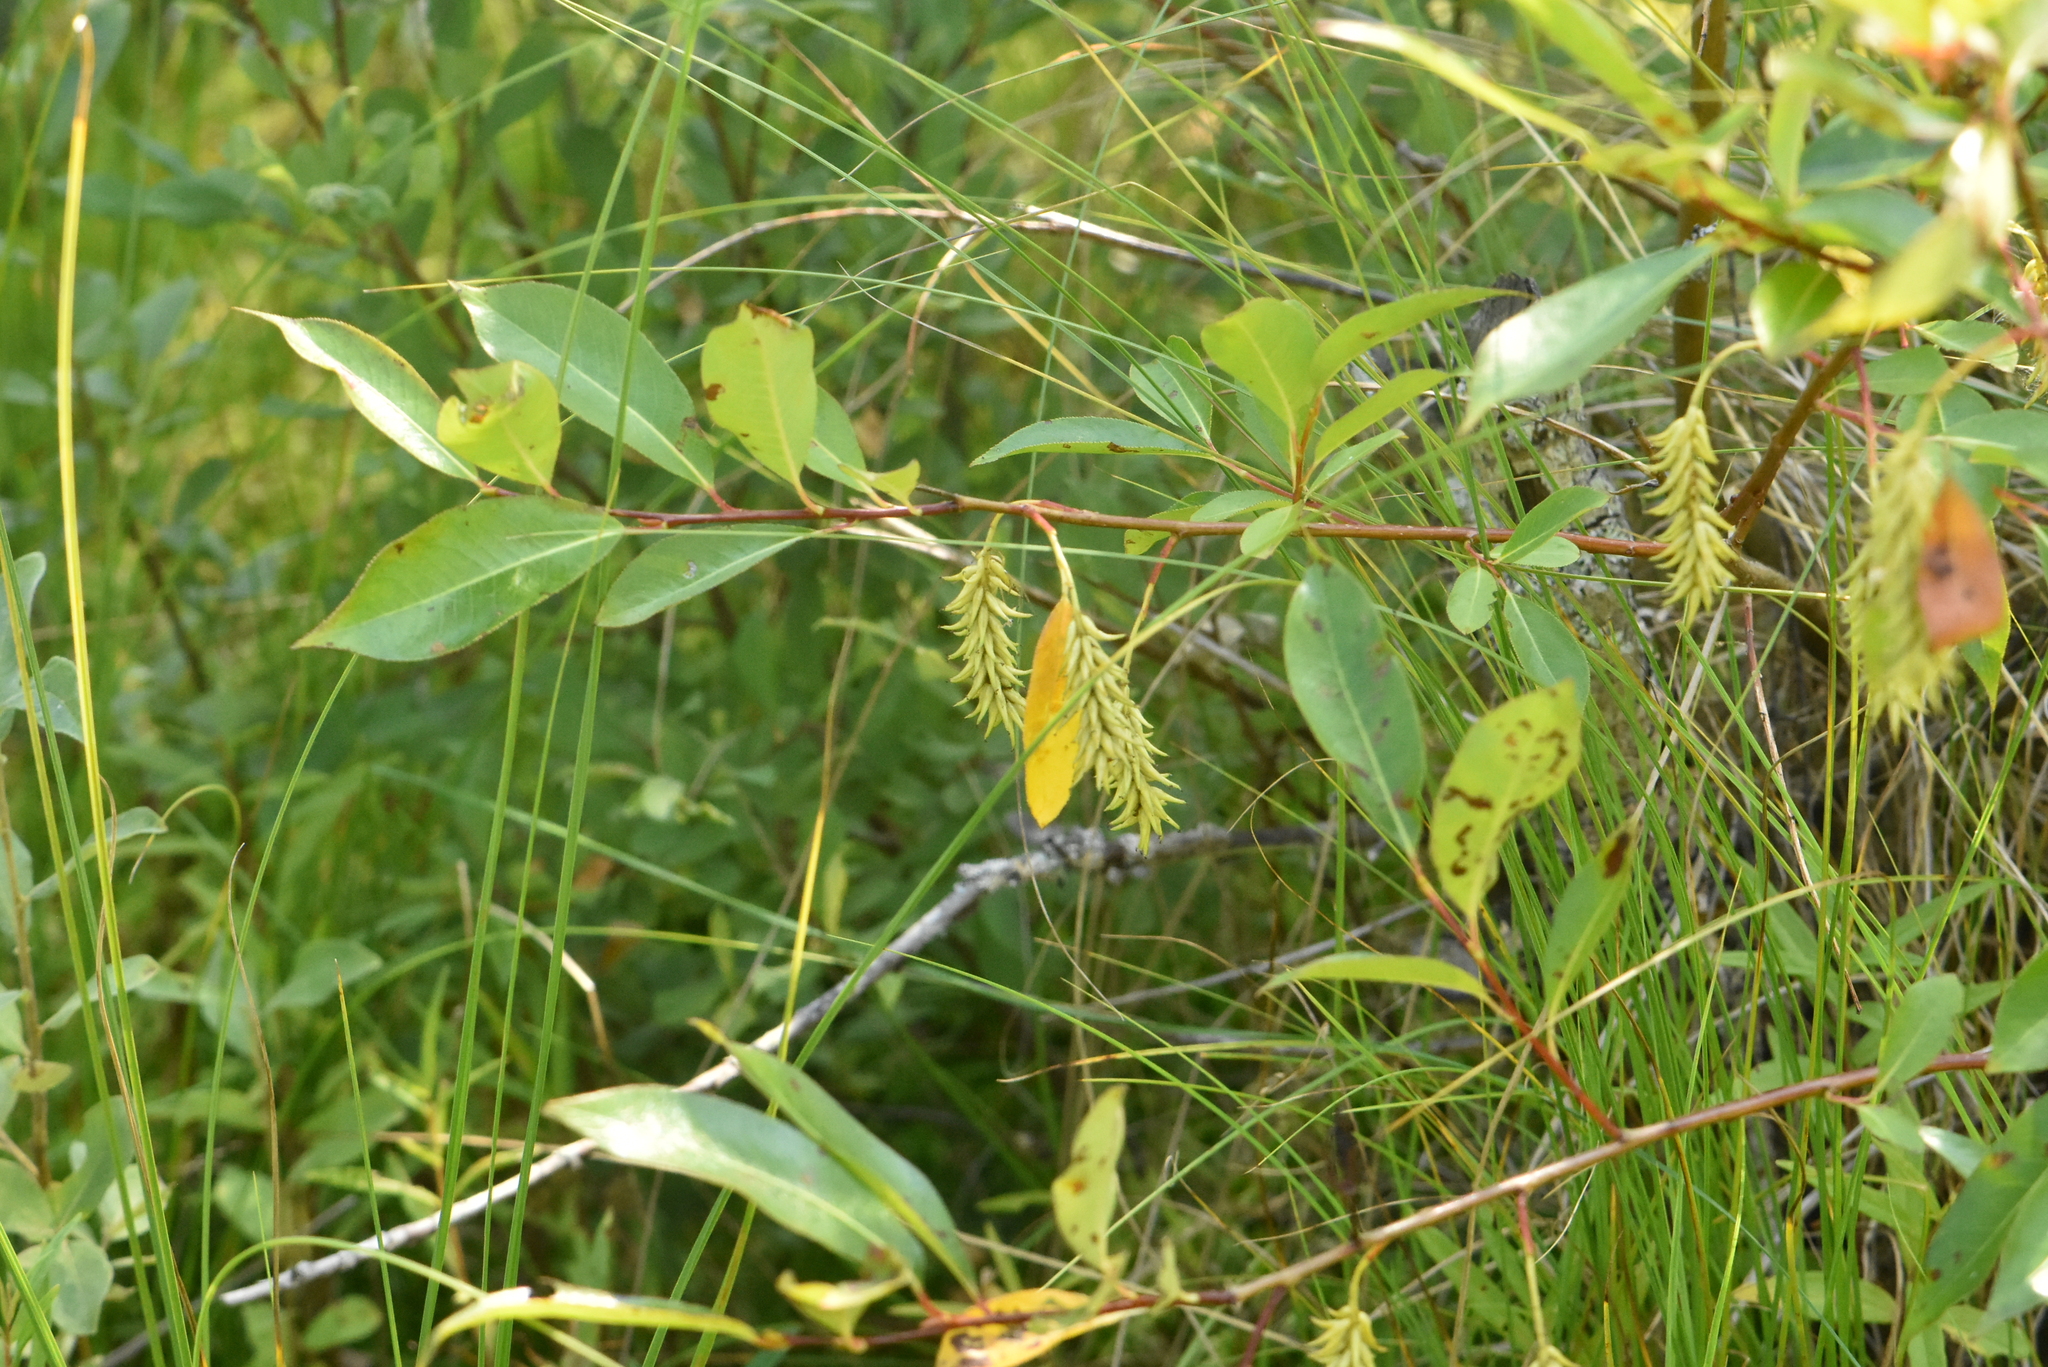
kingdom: Plantae
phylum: Tracheophyta
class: Magnoliopsida
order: Malpighiales
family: Salicaceae
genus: Salix
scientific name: Salix pentandra
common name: Bay willow
